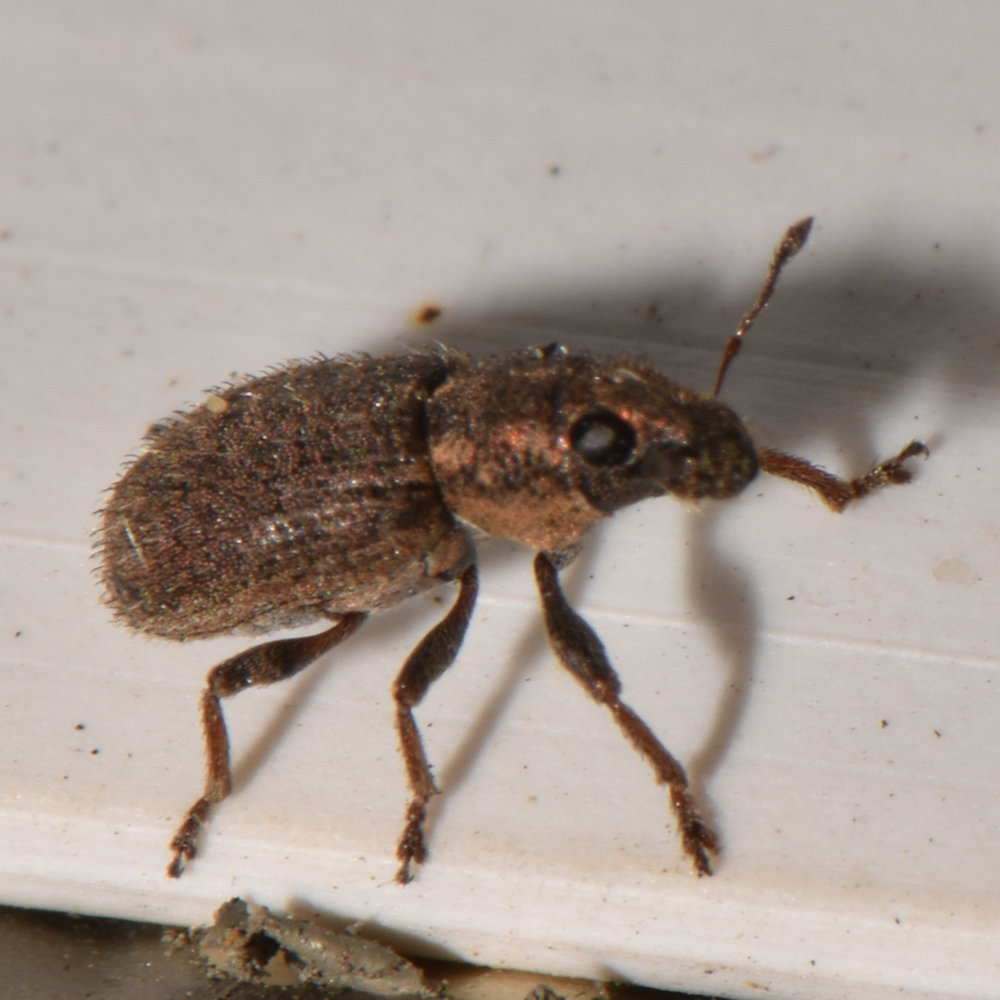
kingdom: Animalia
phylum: Arthropoda
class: Insecta
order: Coleoptera
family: Curculionidae
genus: Sitona
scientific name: Sitona hispidulus
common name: Clover weevil
